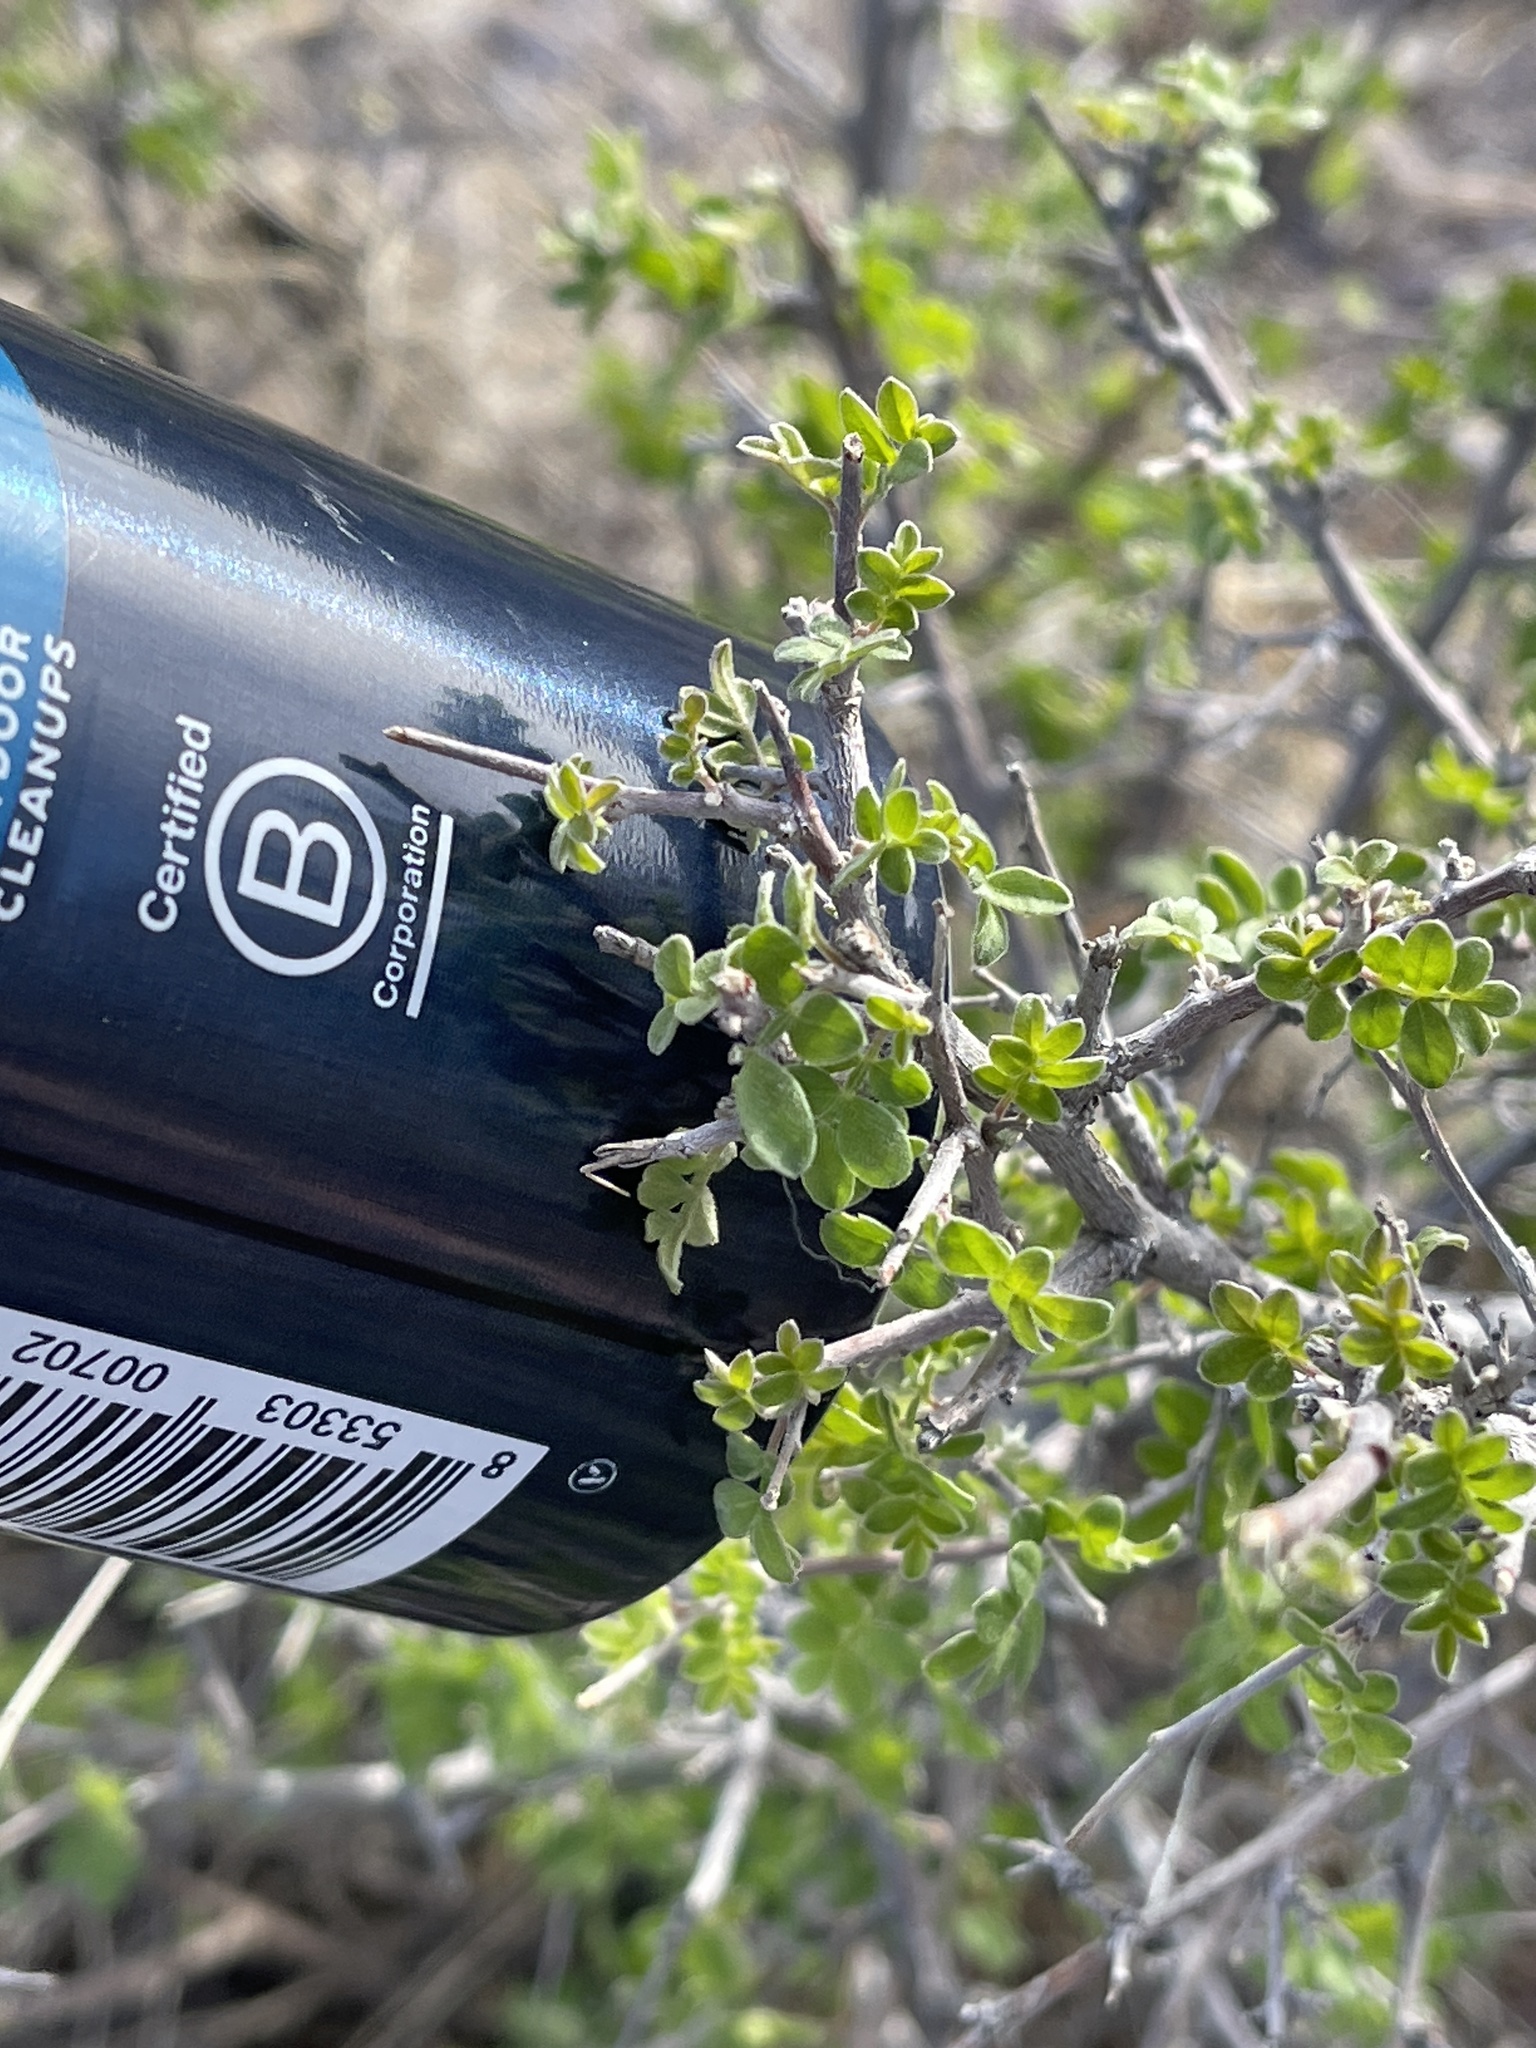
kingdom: Plantae
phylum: Tracheophyta
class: Magnoliopsida
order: Sapindales
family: Anacardiaceae
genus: Rhus
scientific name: Rhus microphylla
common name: Desert sumac
